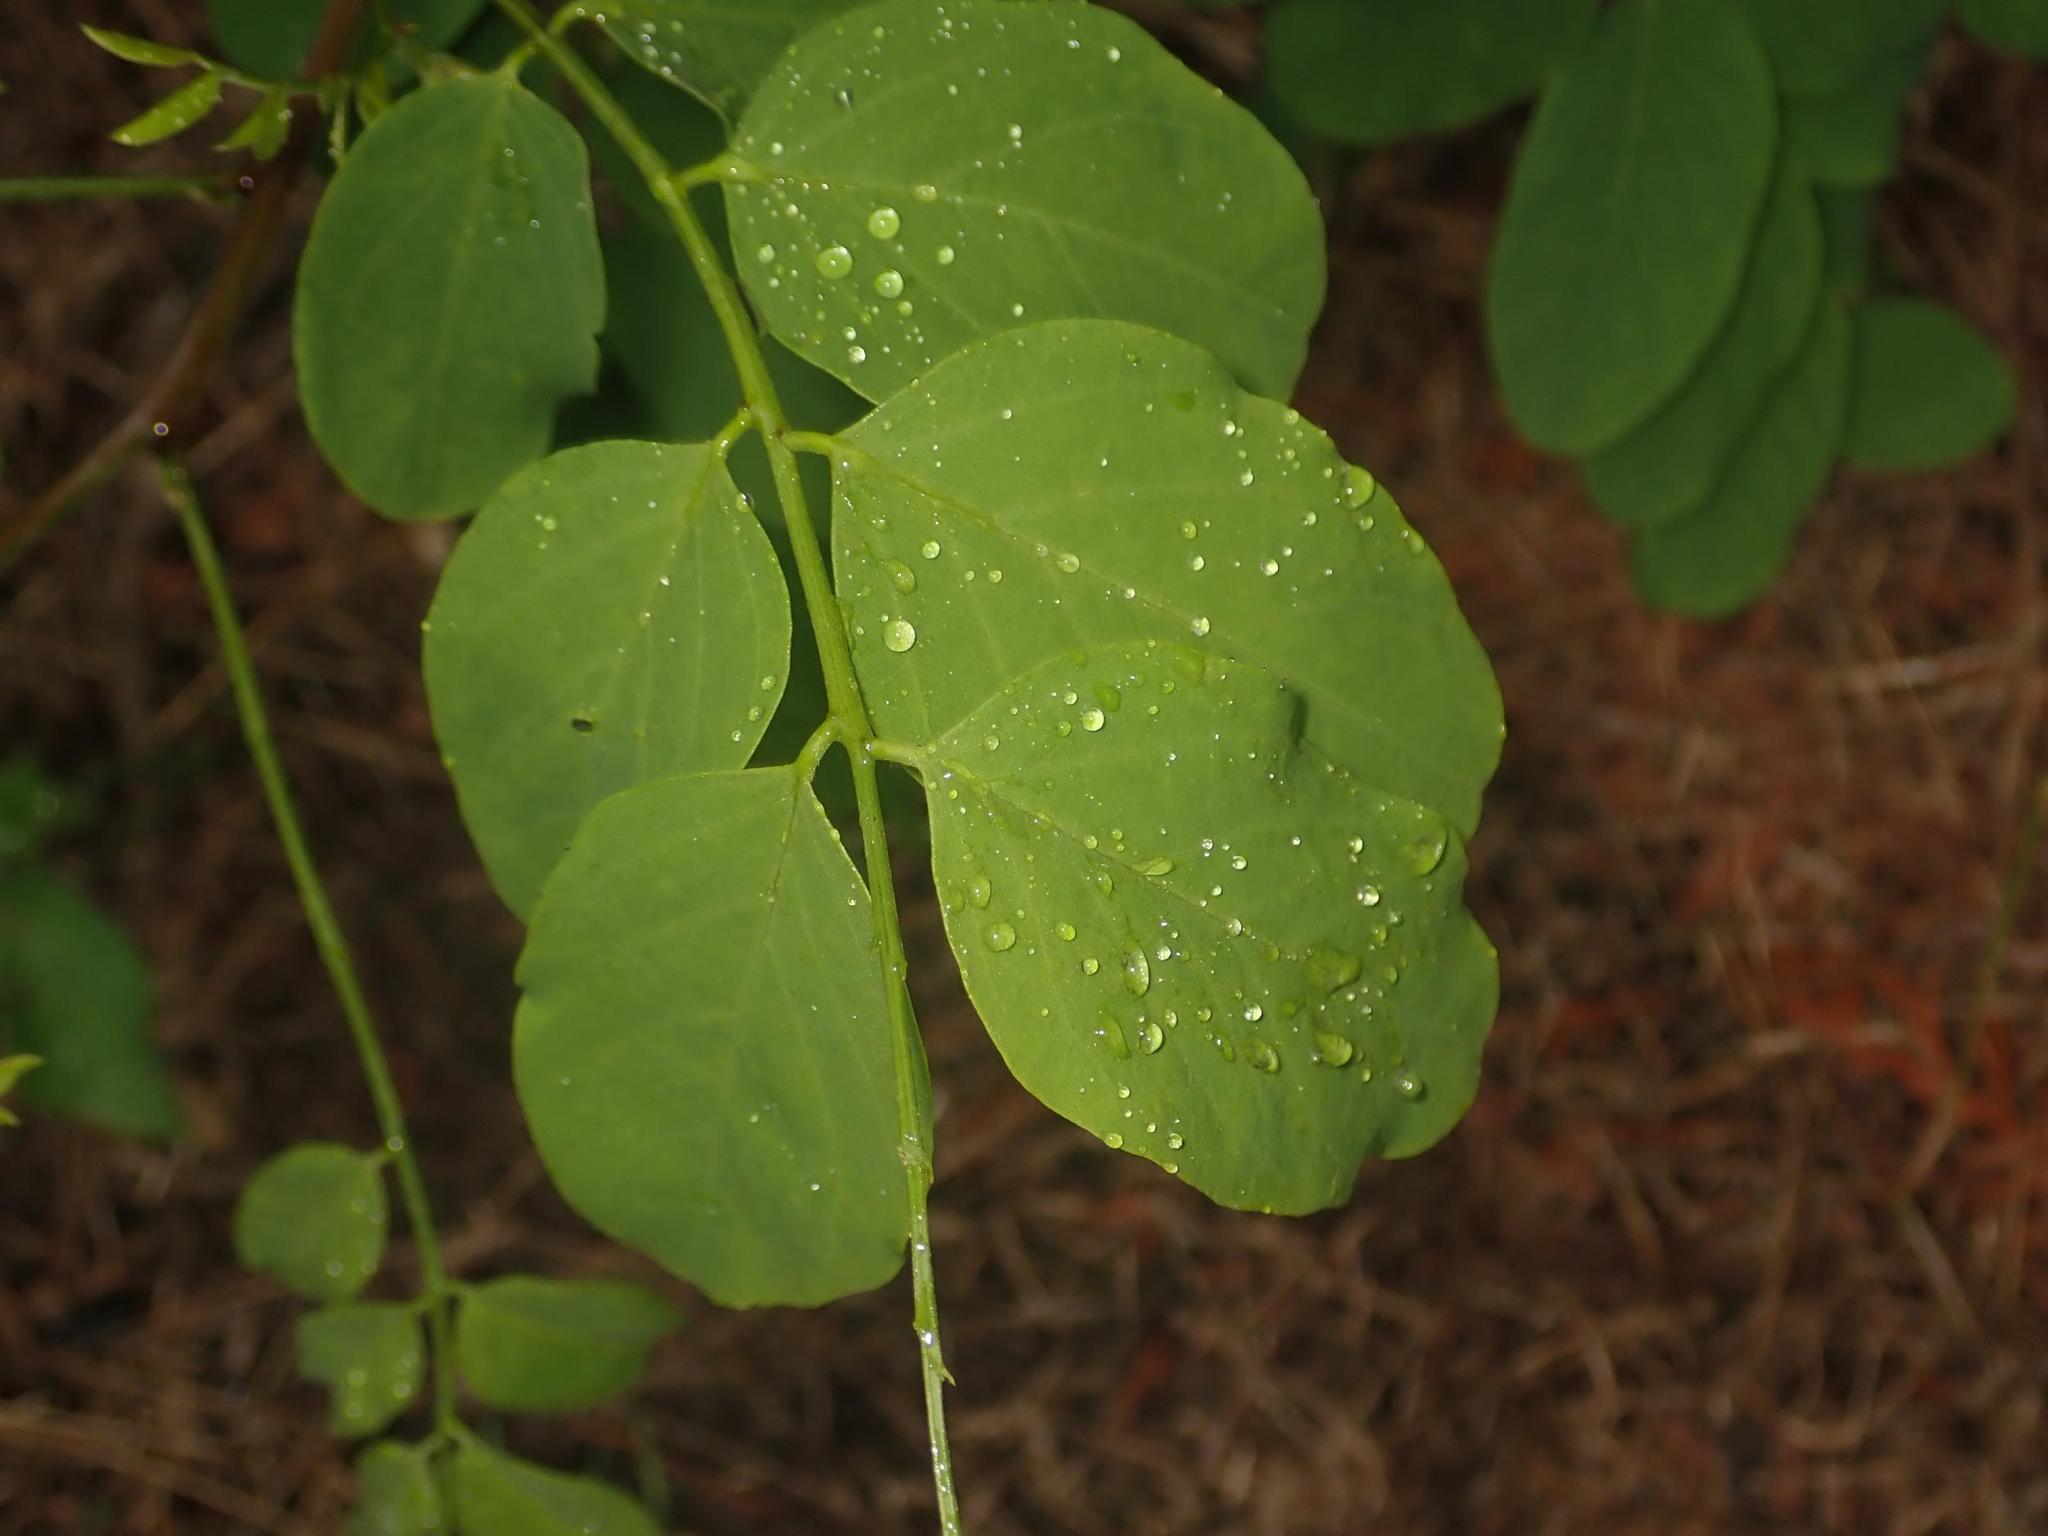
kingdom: Plantae
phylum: Tracheophyta
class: Magnoliopsida
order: Fabales
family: Fabaceae
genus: Robinia
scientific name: Robinia pseudoacacia
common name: Black locust
